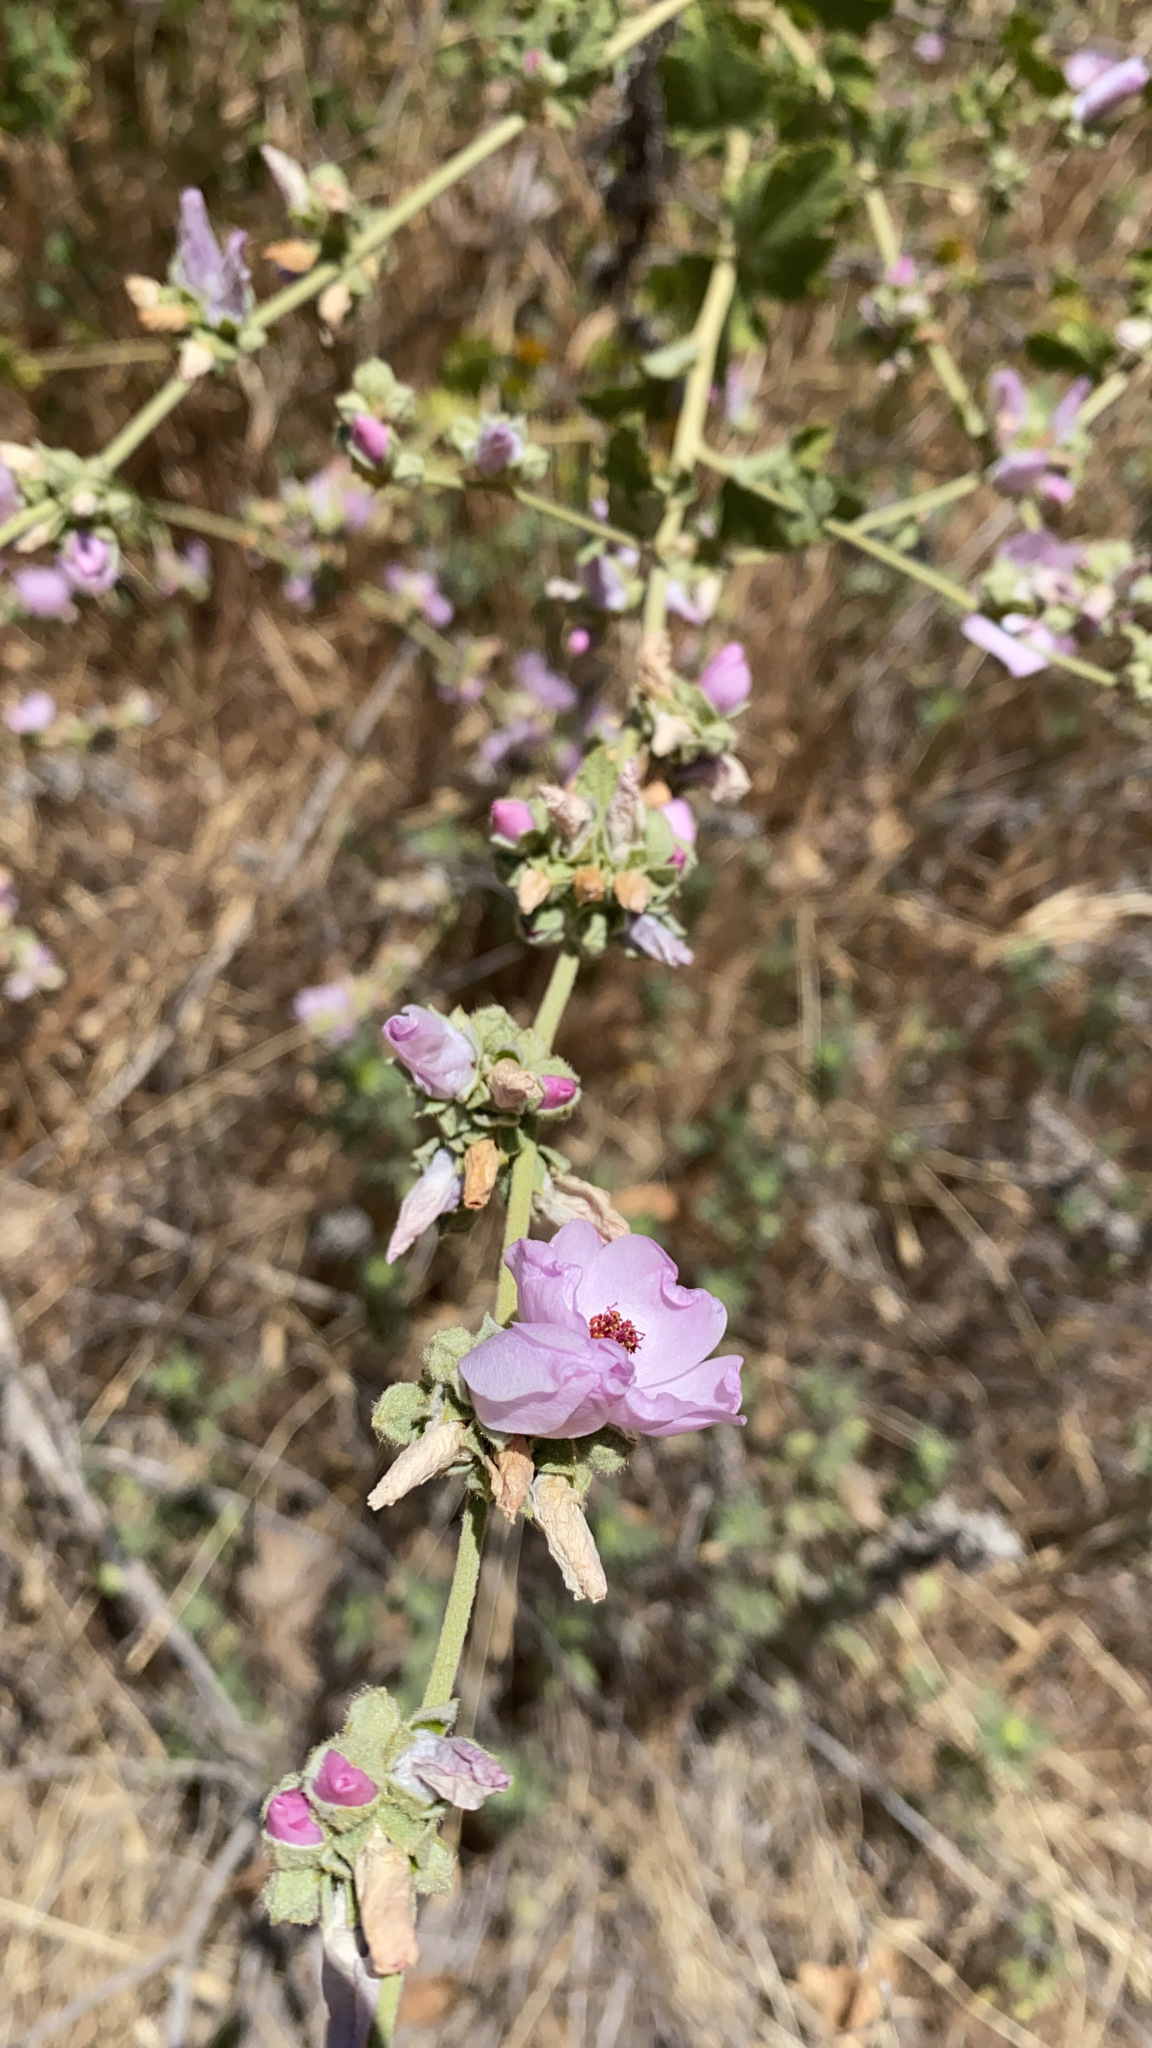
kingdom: Plantae
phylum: Tracheophyta
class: Magnoliopsida
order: Malvales
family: Malvaceae
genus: Malacothamnus
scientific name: Malacothamnus fasciculatus
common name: Sant cruz island bush-mallow
